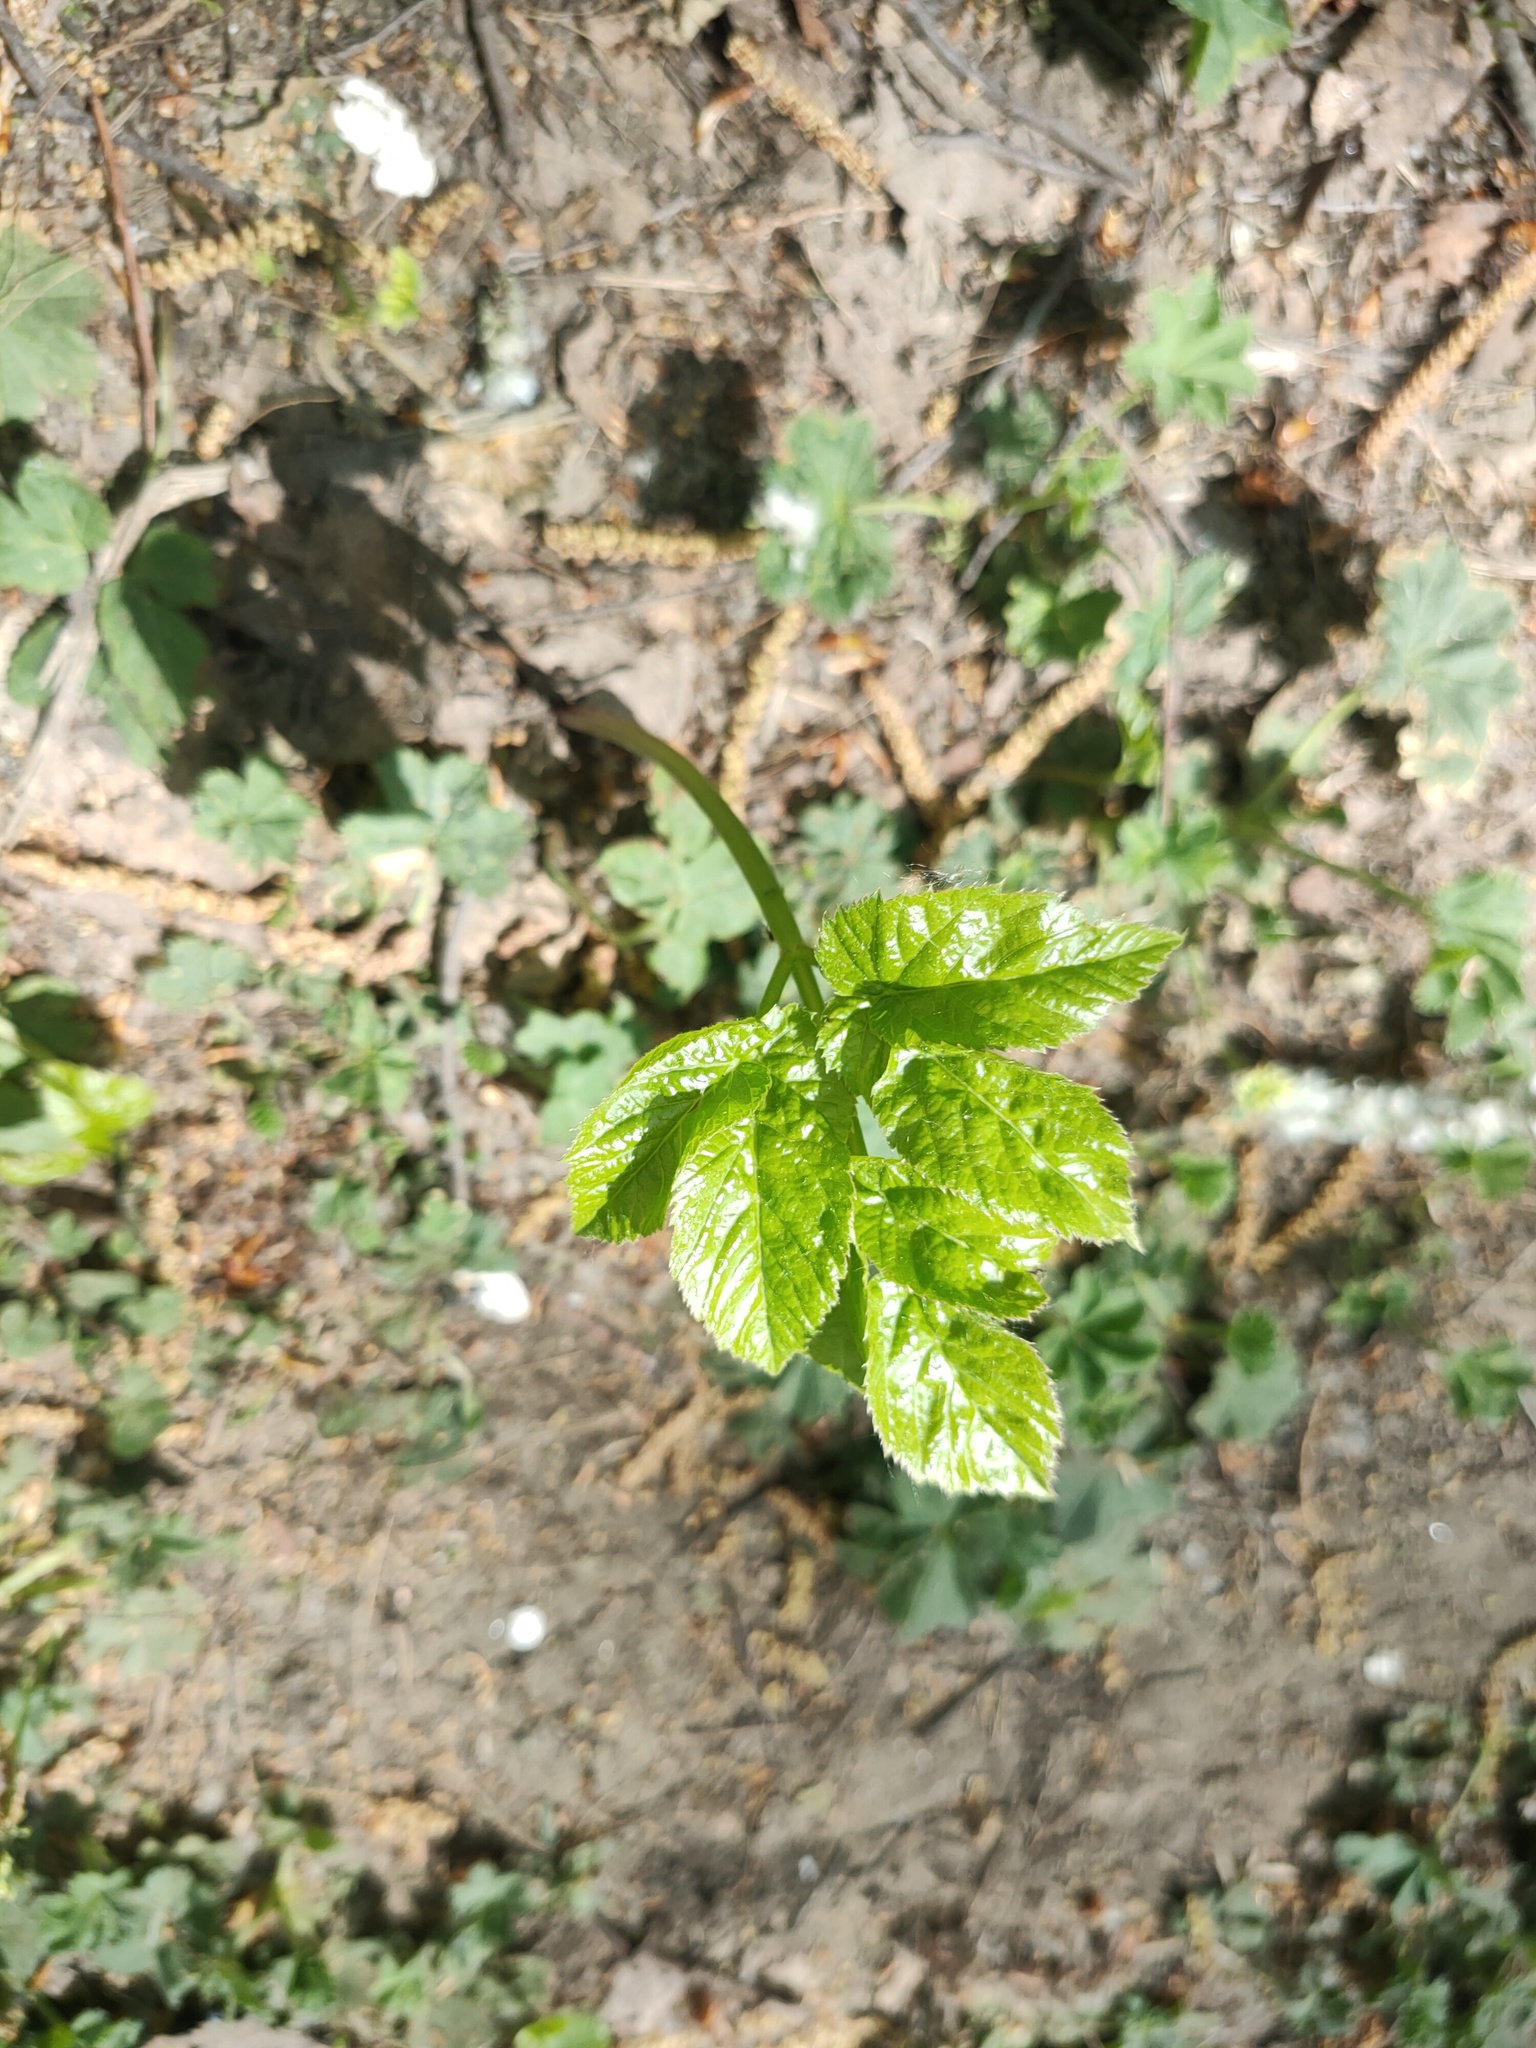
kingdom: Plantae
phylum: Tracheophyta
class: Magnoliopsida
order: Apiales
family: Apiaceae
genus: Aegopodium
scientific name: Aegopodium podagraria
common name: Ground-elder
